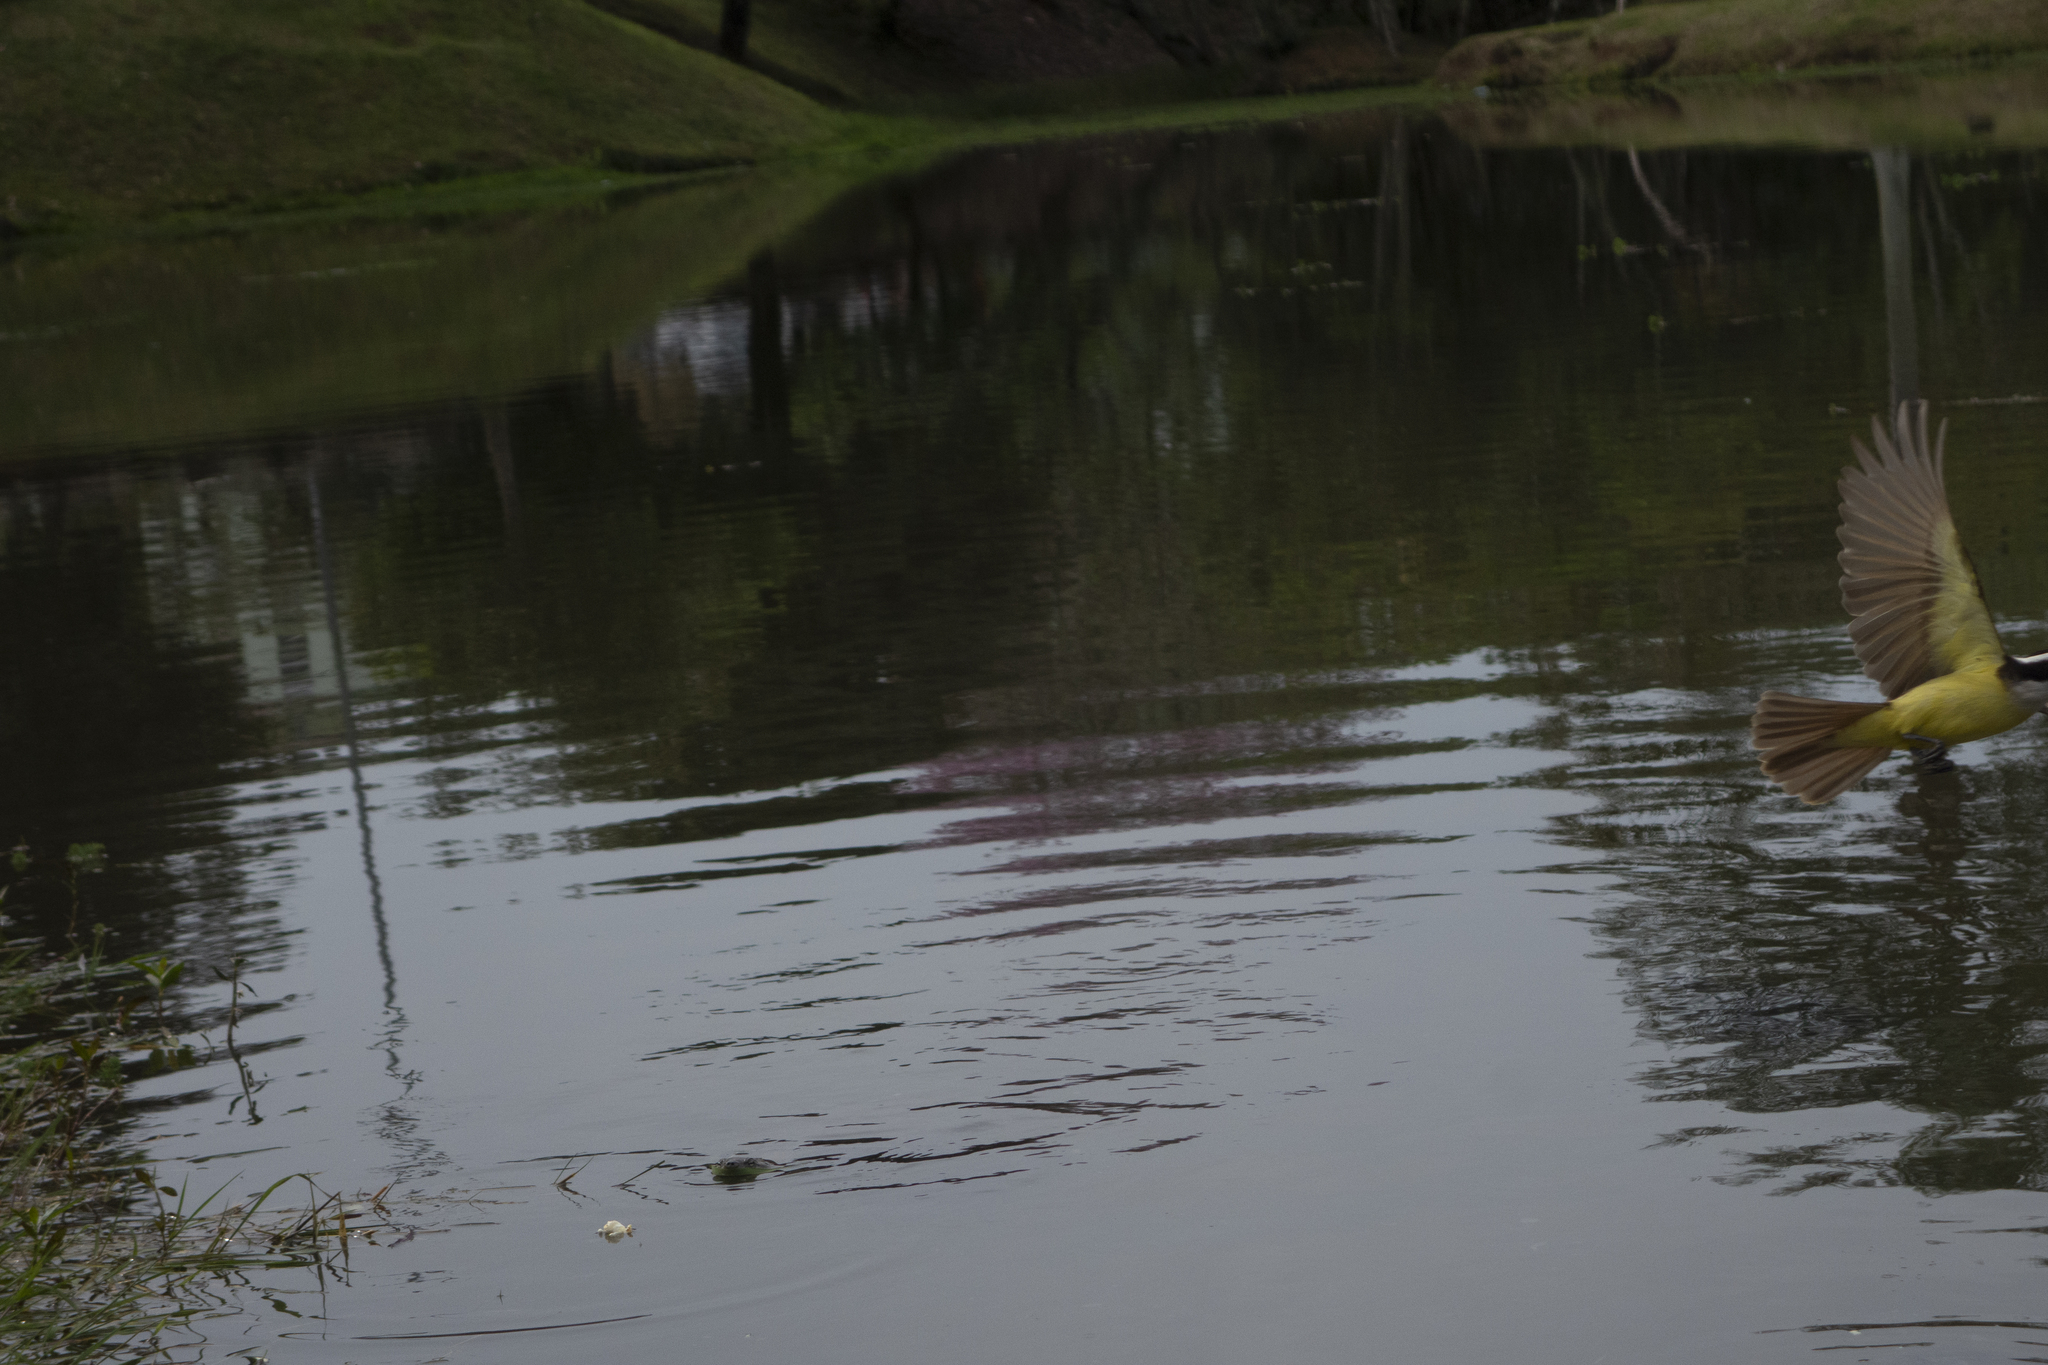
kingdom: Animalia
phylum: Chordata
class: Aves
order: Passeriformes
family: Tyrannidae
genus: Pitangus
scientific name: Pitangus sulphuratus
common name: Great kiskadee
